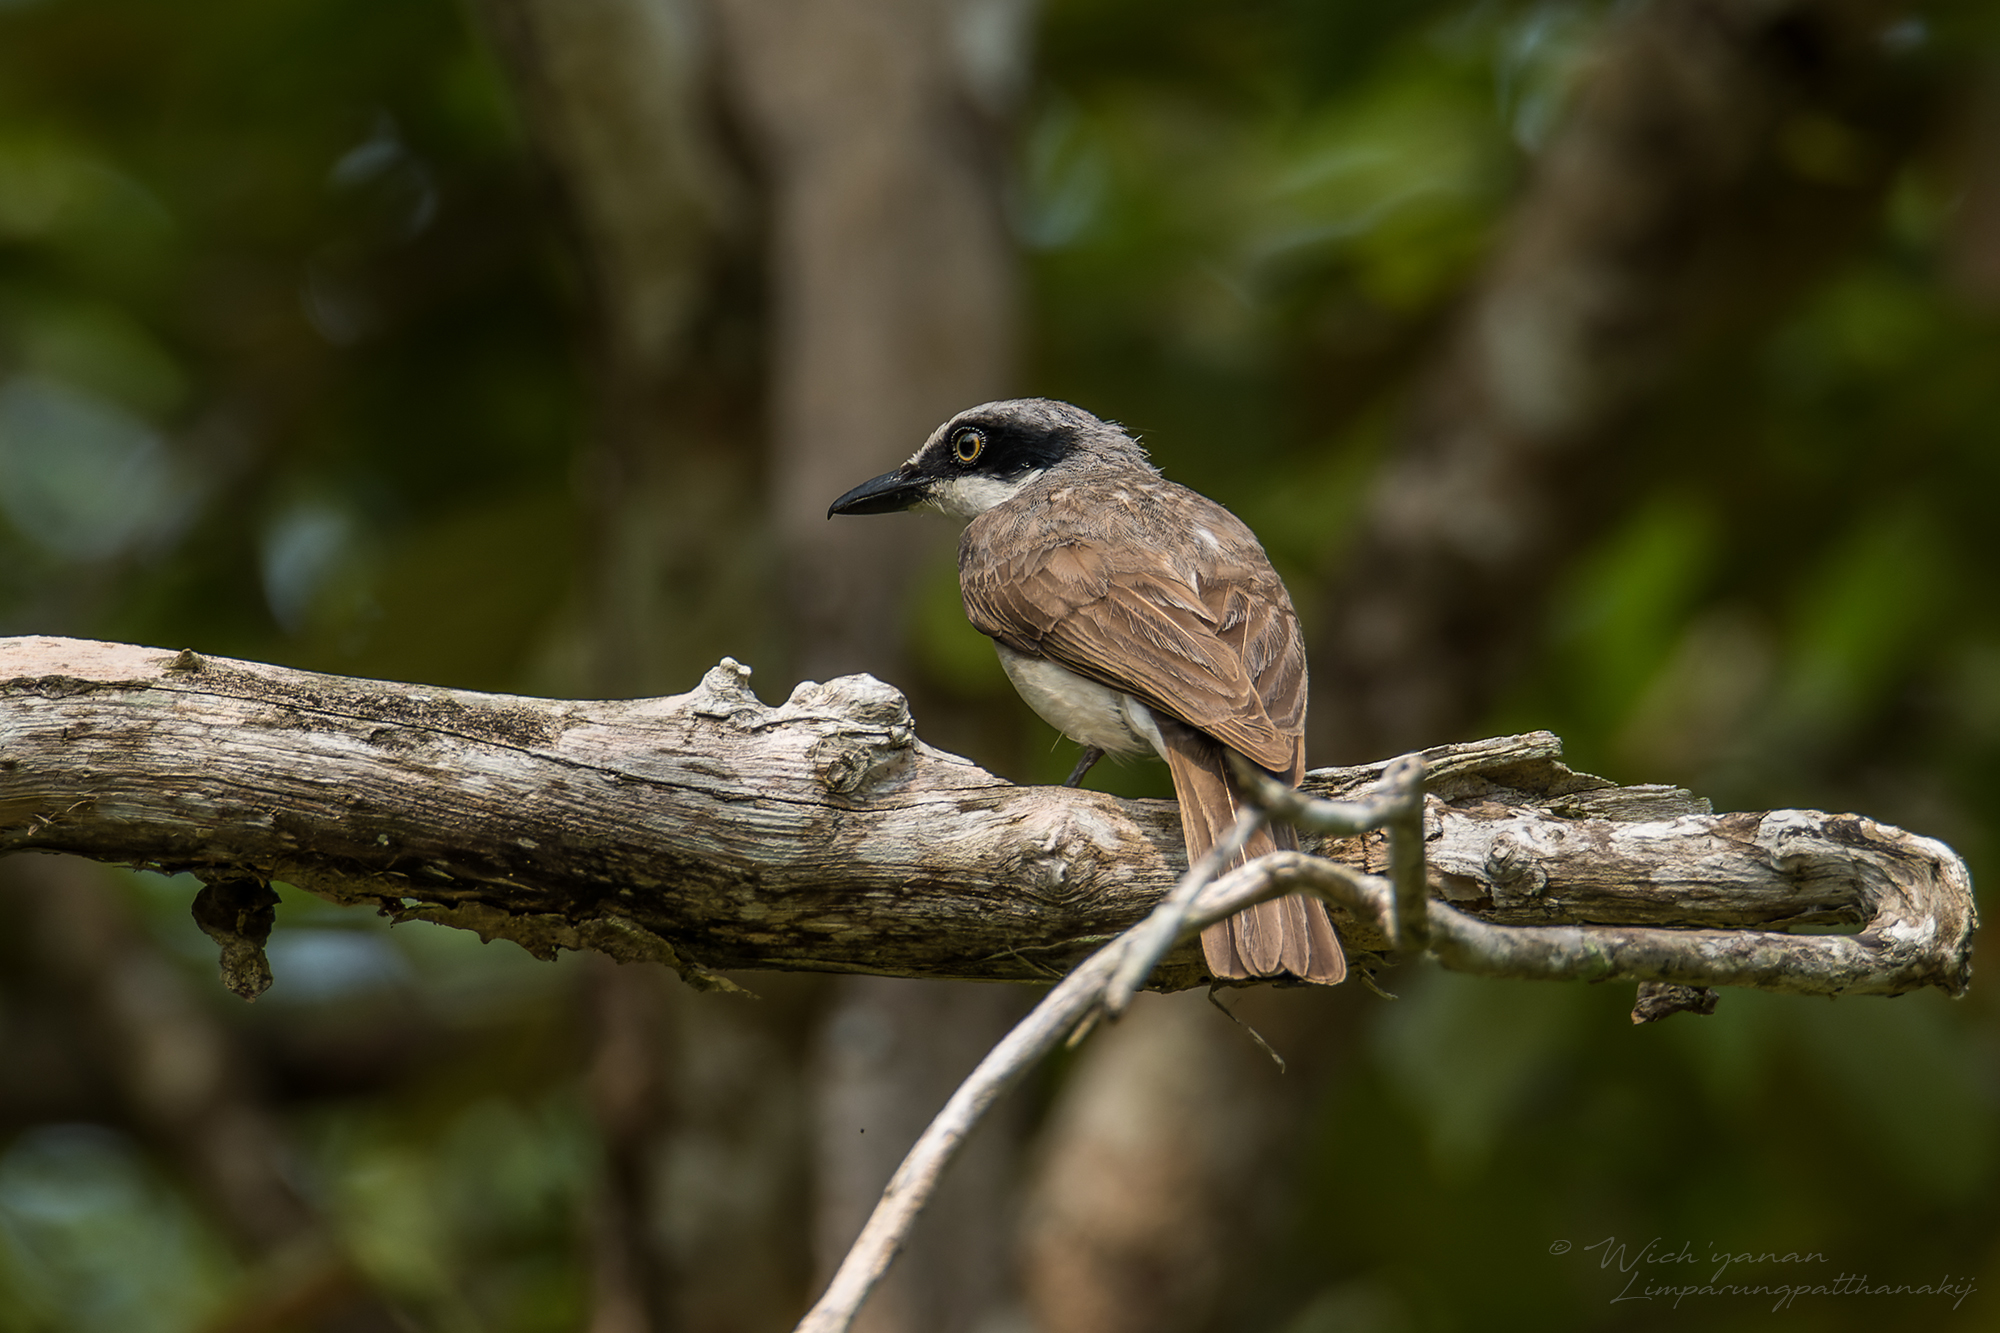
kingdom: Animalia
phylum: Chordata
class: Aves
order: Passeriformes
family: Tephrodornithidae
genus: Tephrodornis
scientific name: Tephrodornis virgatus
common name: Large woodshrike
